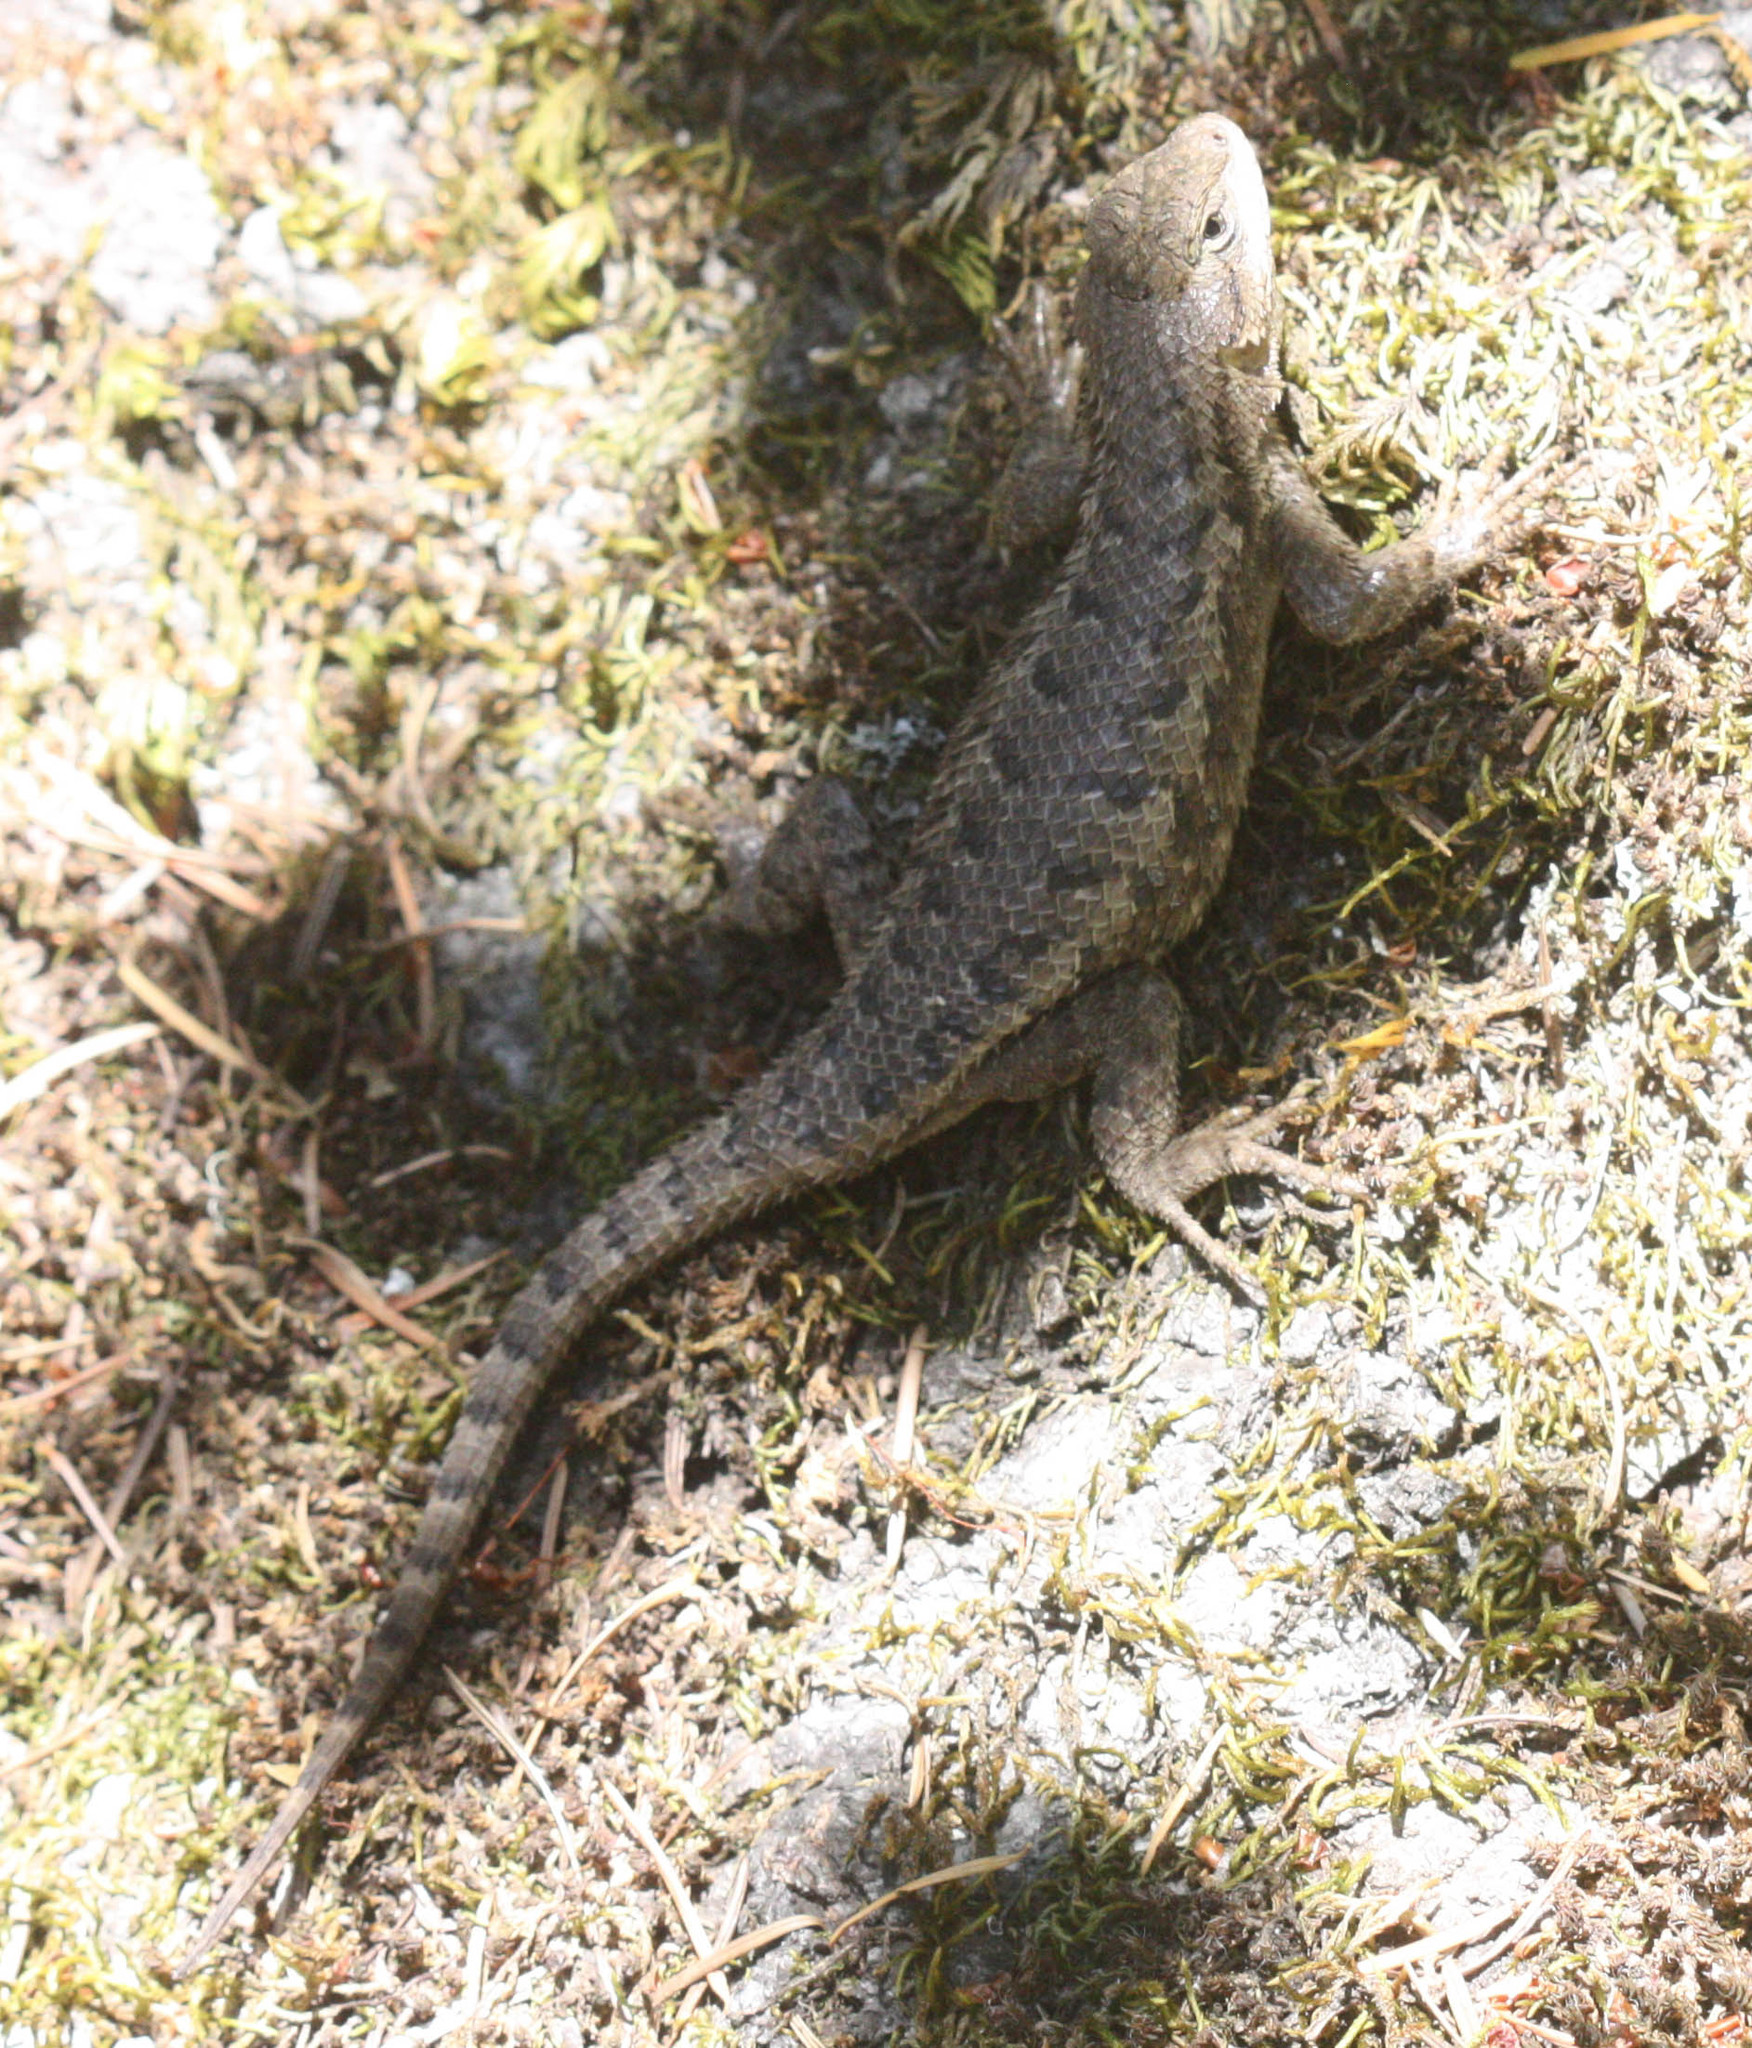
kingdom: Animalia
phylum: Chordata
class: Squamata
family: Phrynosomatidae
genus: Sceloporus
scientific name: Sceloporus occidentalis
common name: Western fence lizard
